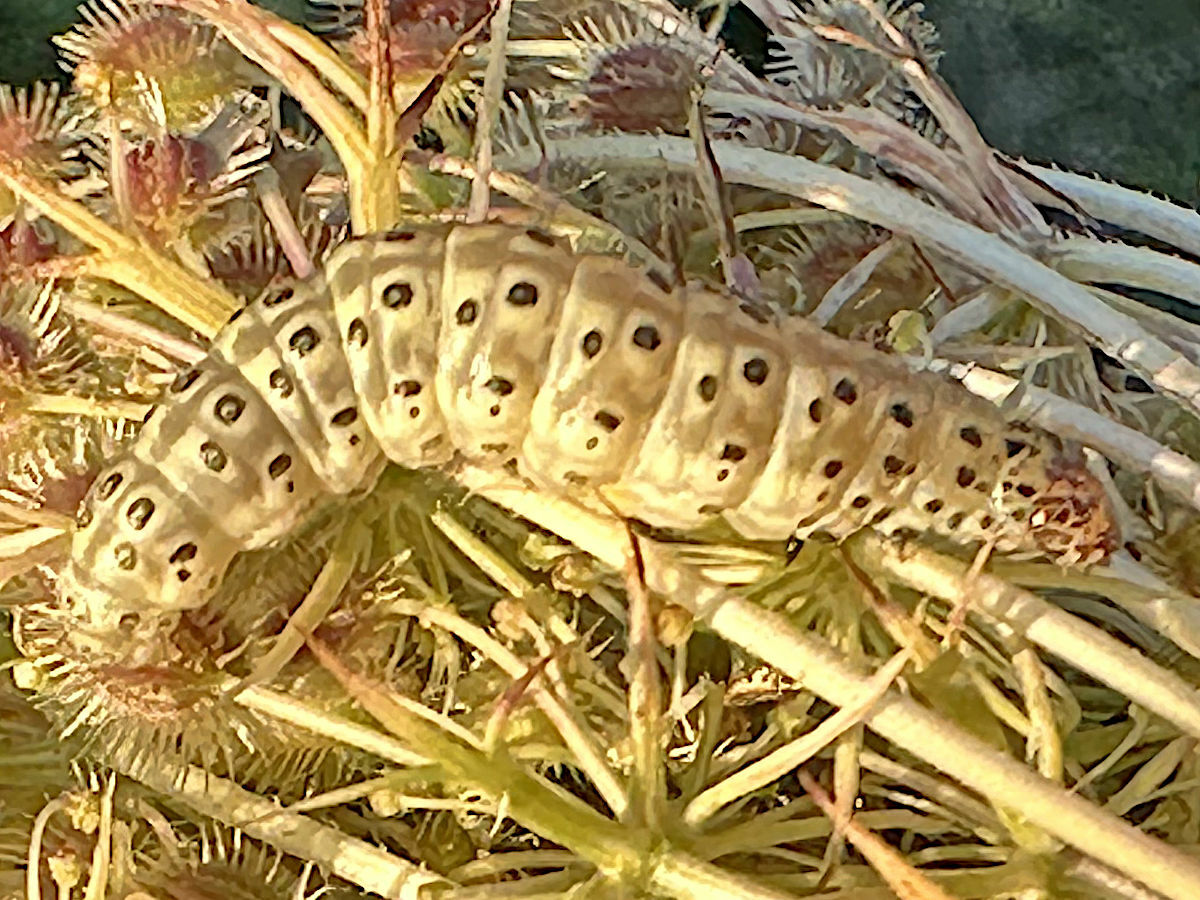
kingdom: Animalia
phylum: Arthropoda
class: Insecta
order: Lepidoptera
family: Crambidae
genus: Sitochroa
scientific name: Sitochroa palealis
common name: Greenish-yellow sitochroa moth
